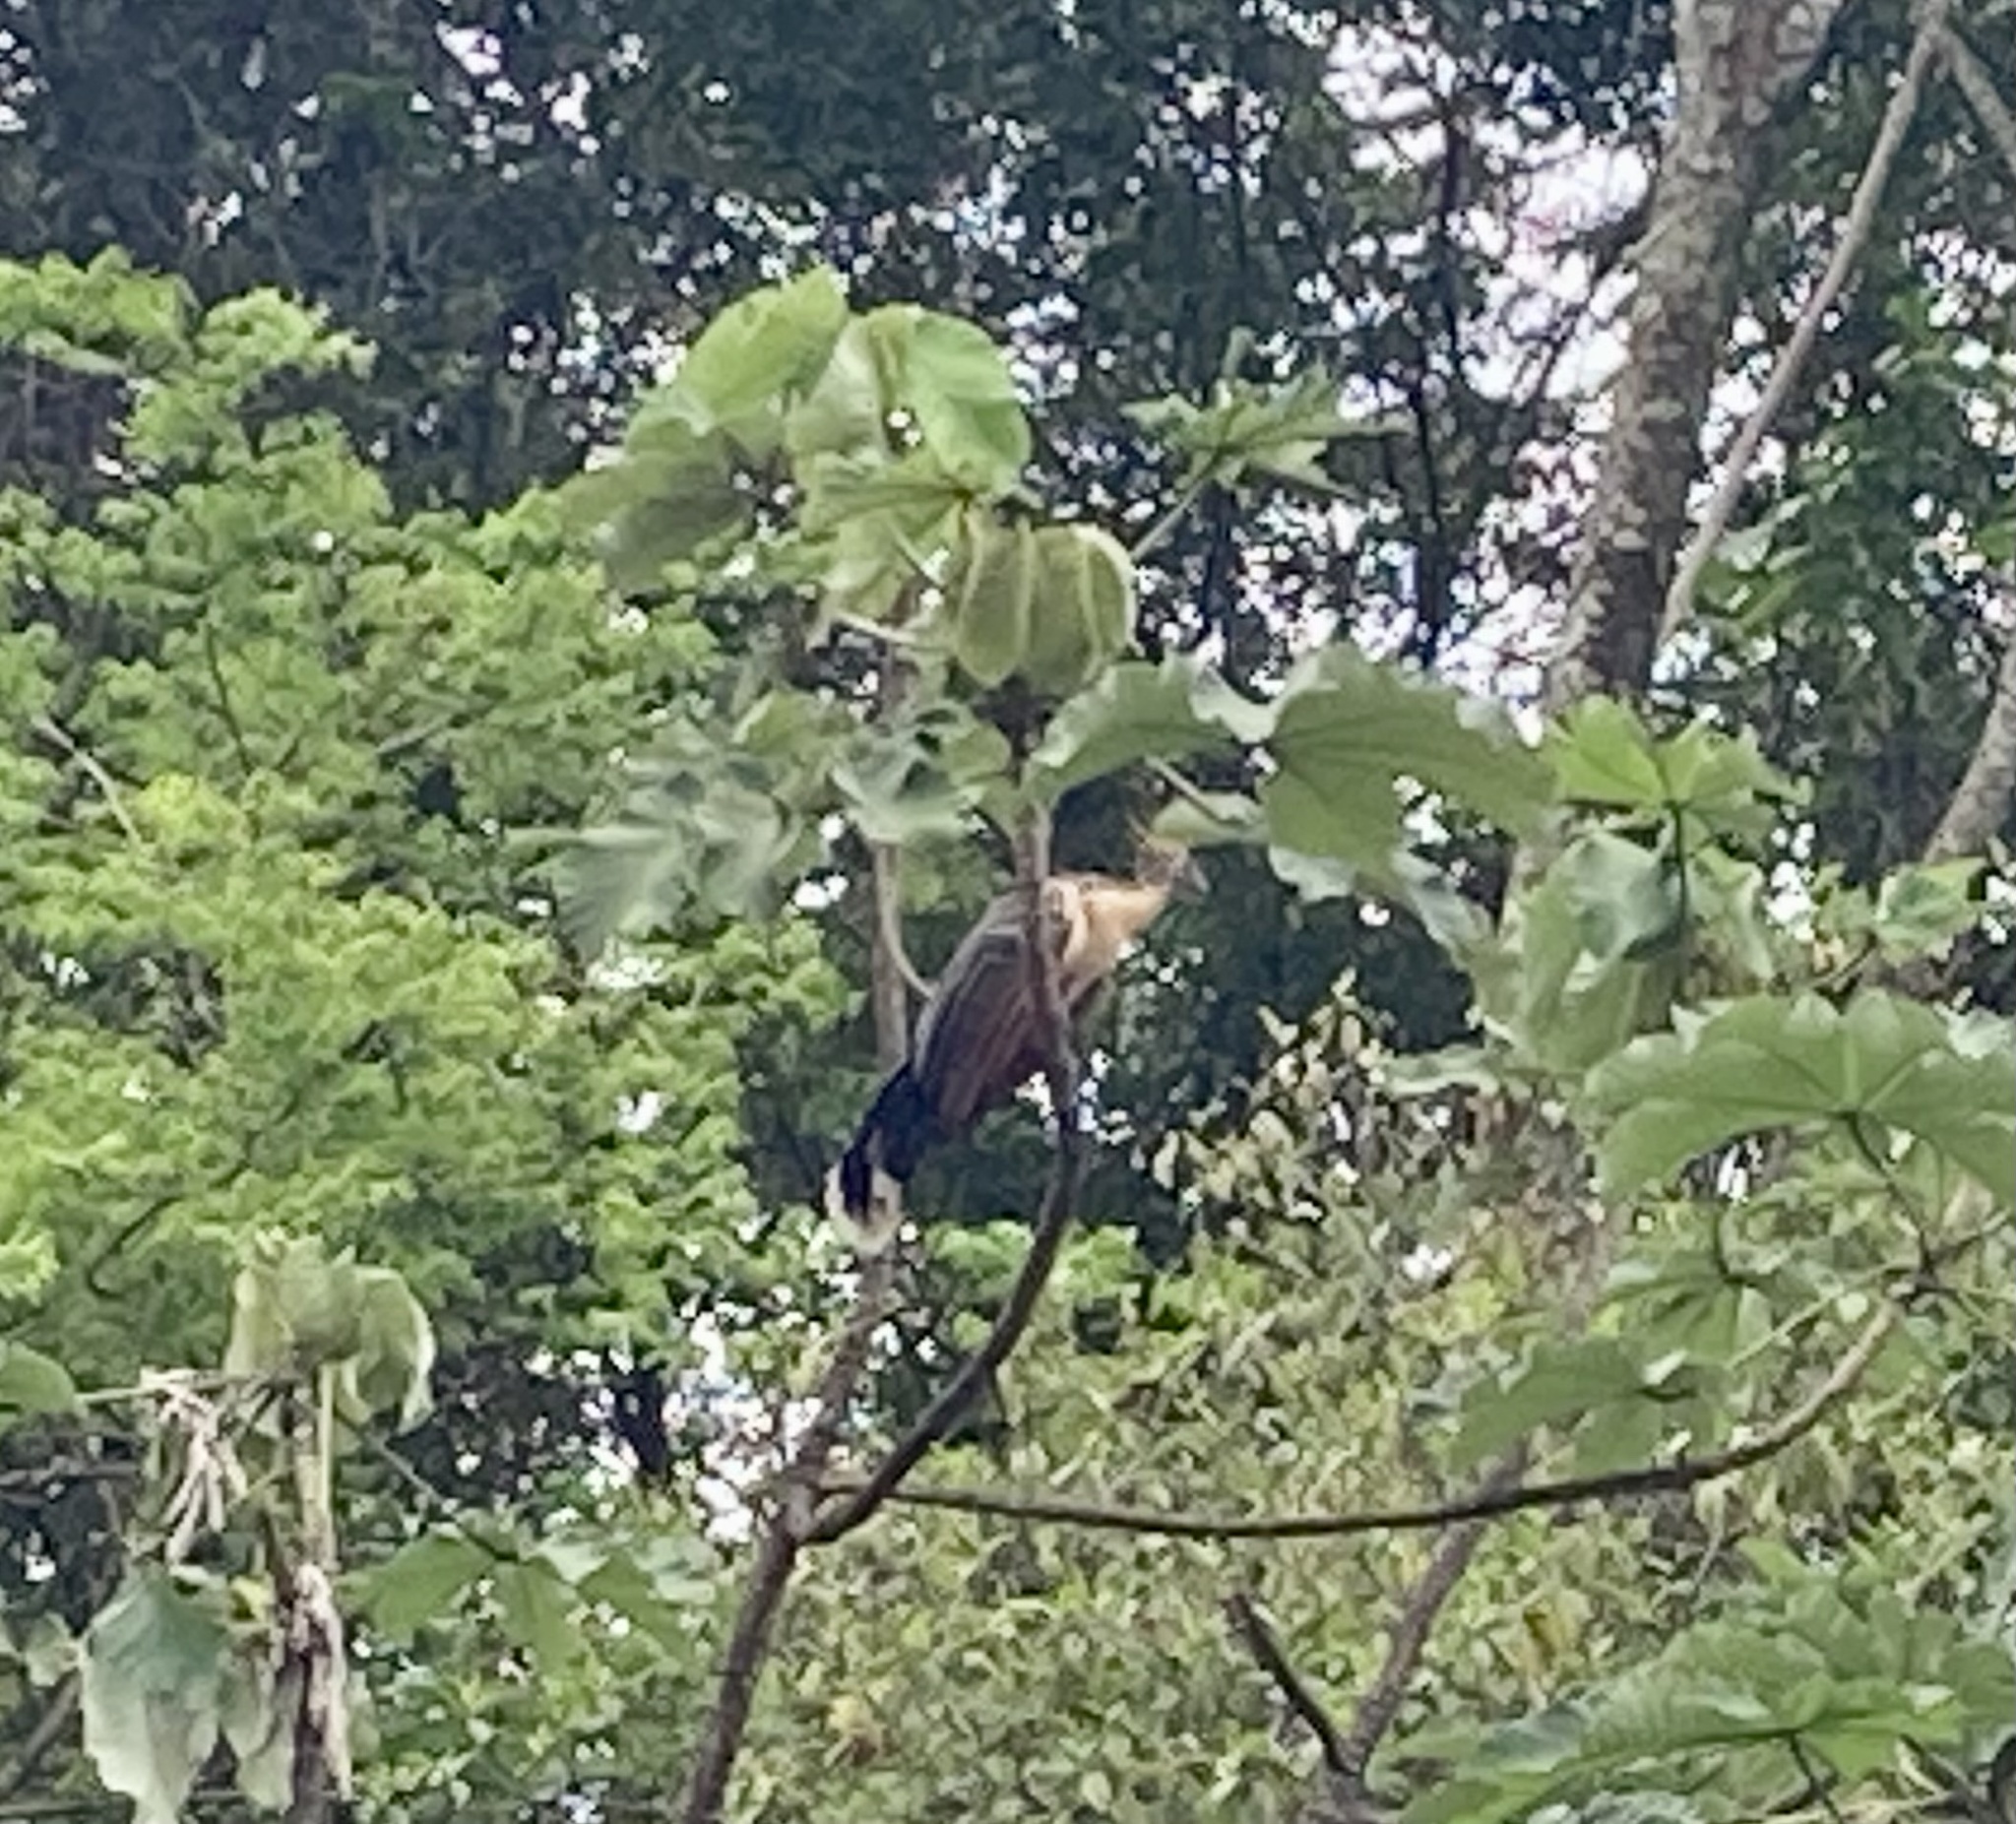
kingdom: Animalia
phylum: Chordata
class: Aves
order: Opisthocomiformes
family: Opisthocomidae
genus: Opisthocomus
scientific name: Opisthocomus hoazin
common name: Hoatzin
